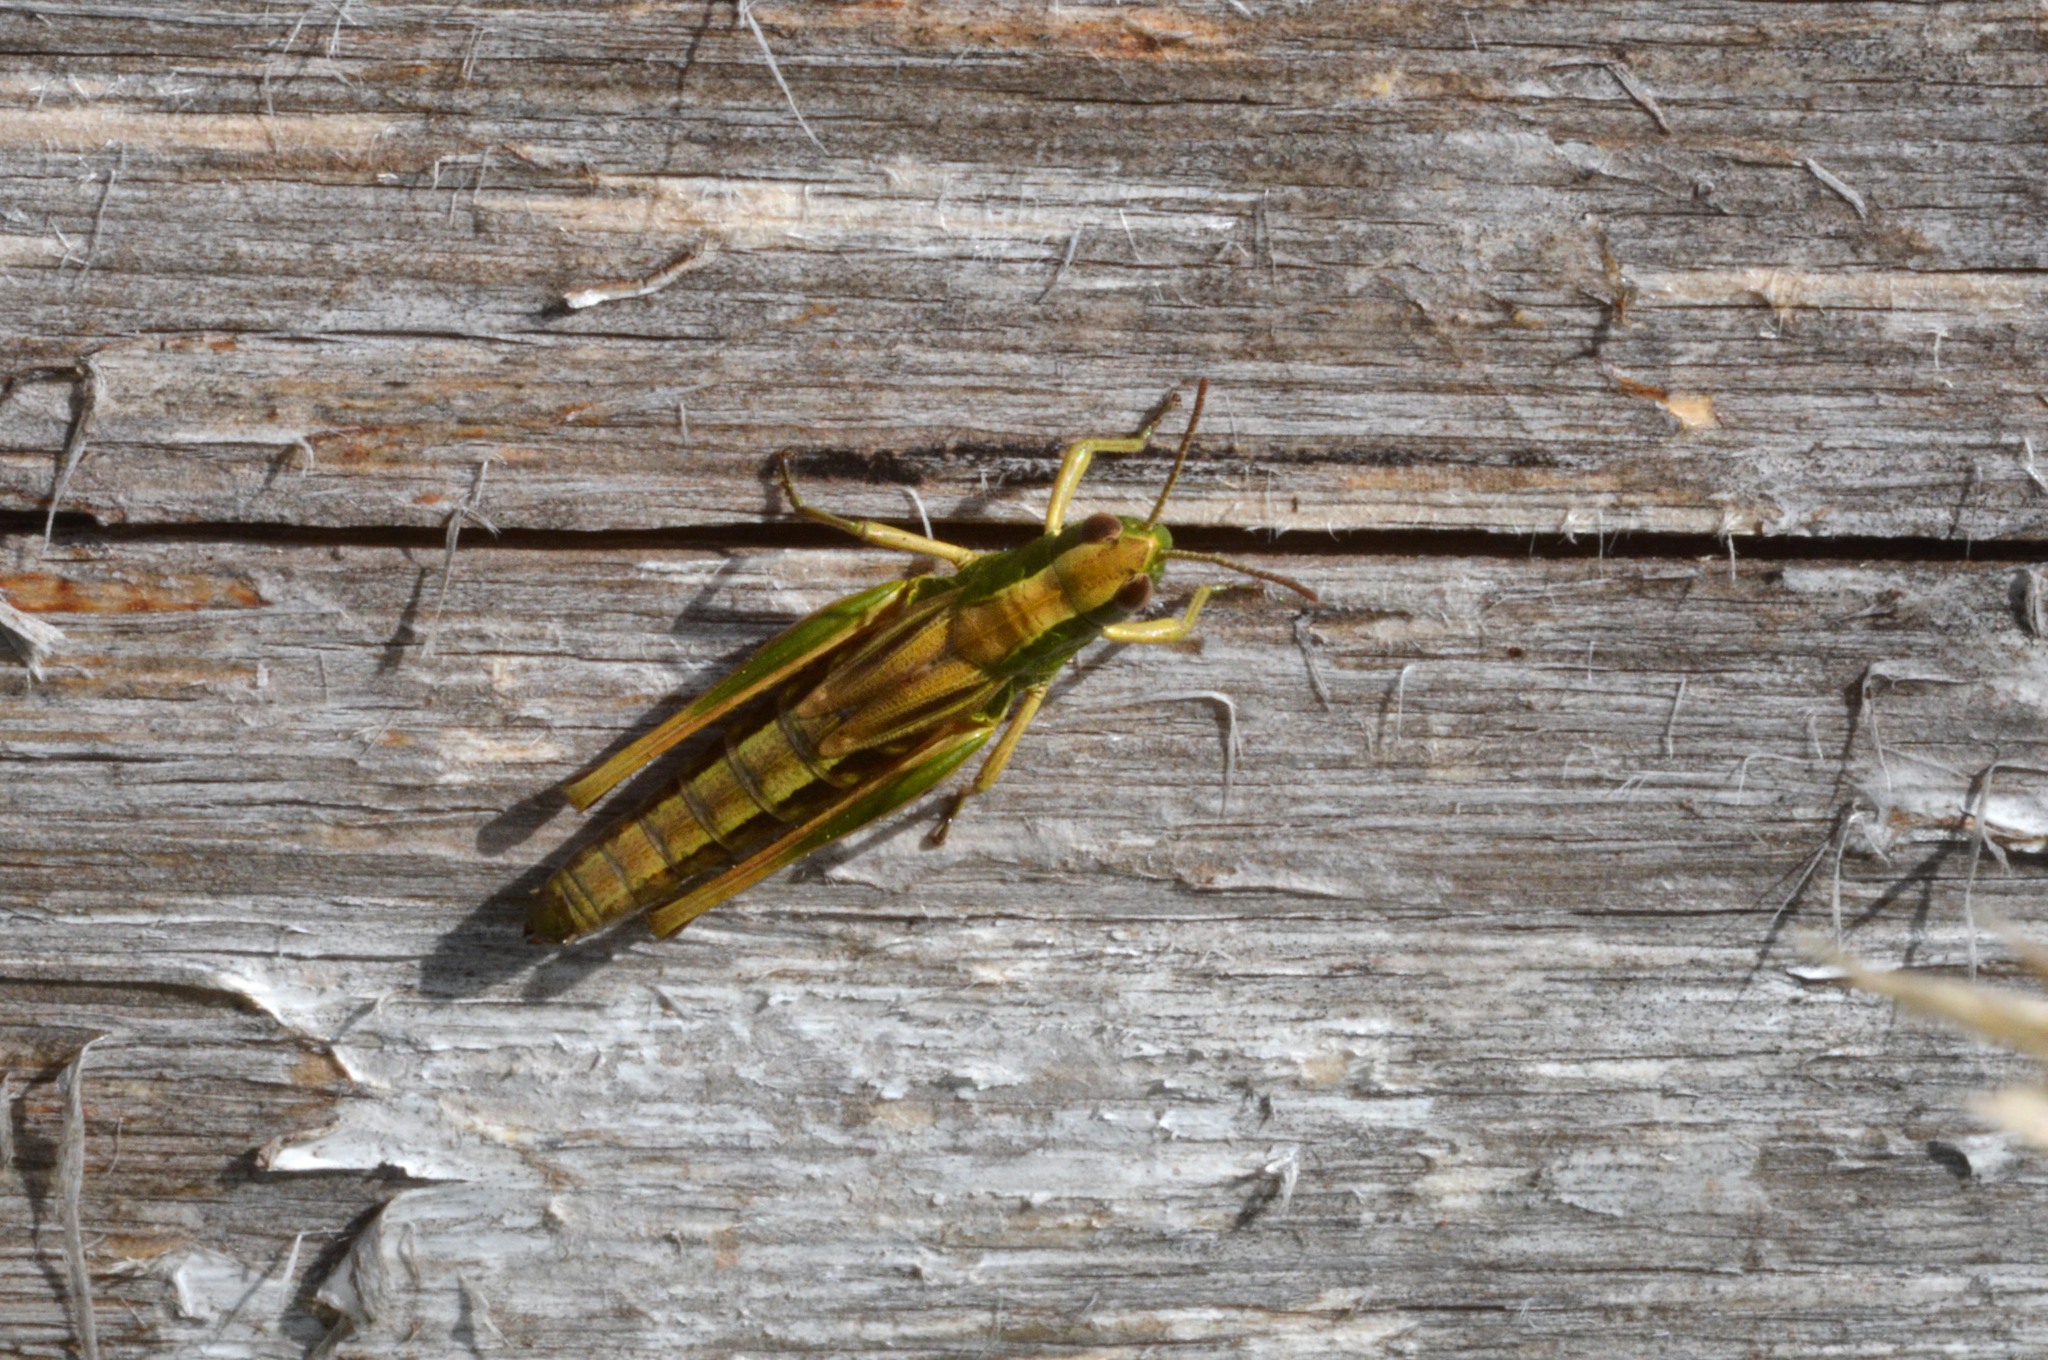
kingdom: Animalia
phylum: Arthropoda
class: Insecta
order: Orthoptera
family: Acrididae
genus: Pseudochorthippus
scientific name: Pseudochorthippus parallelus
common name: Meadow grasshopper
